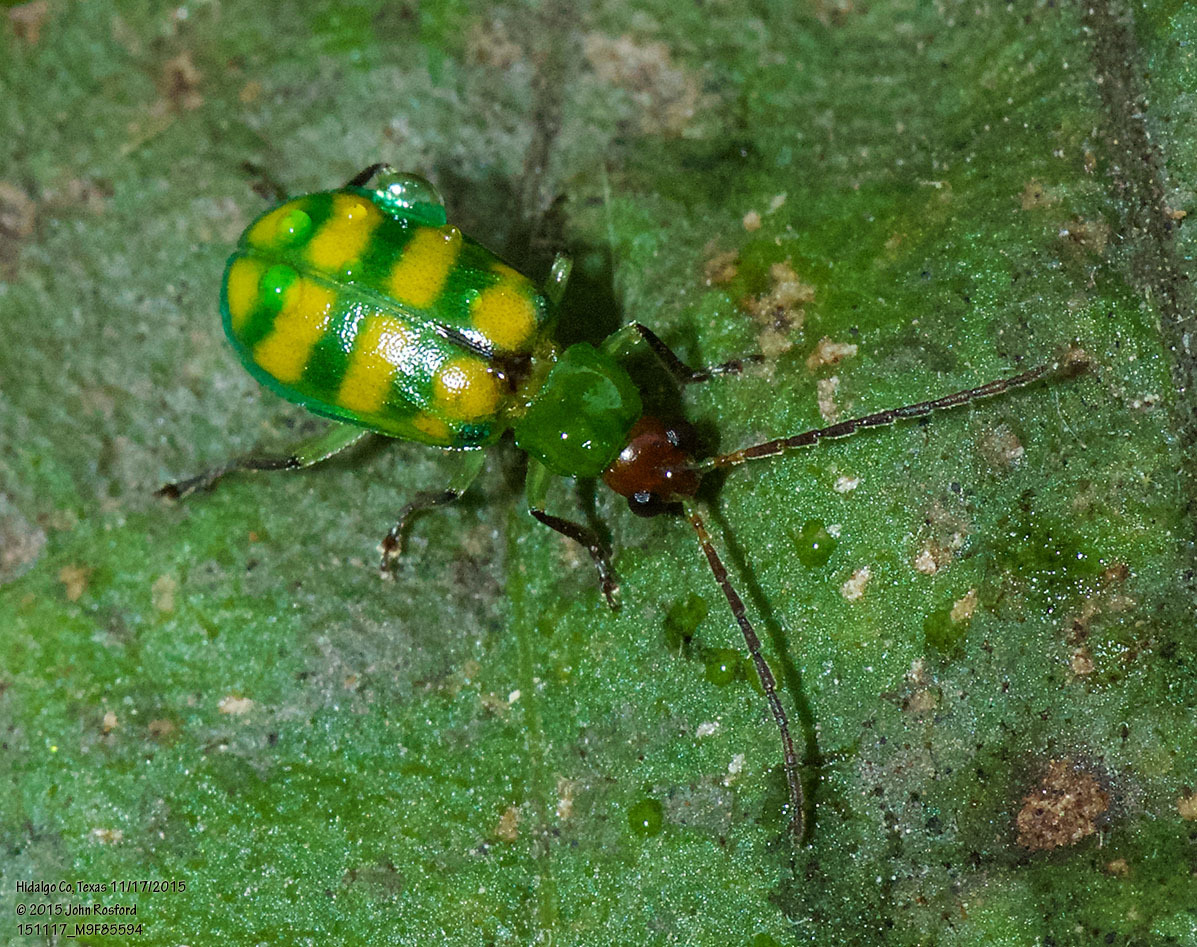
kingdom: Animalia
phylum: Arthropoda
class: Insecta
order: Coleoptera
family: Chrysomelidae
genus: Diabrotica
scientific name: Diabrotica balteata
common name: Leaf beetle
